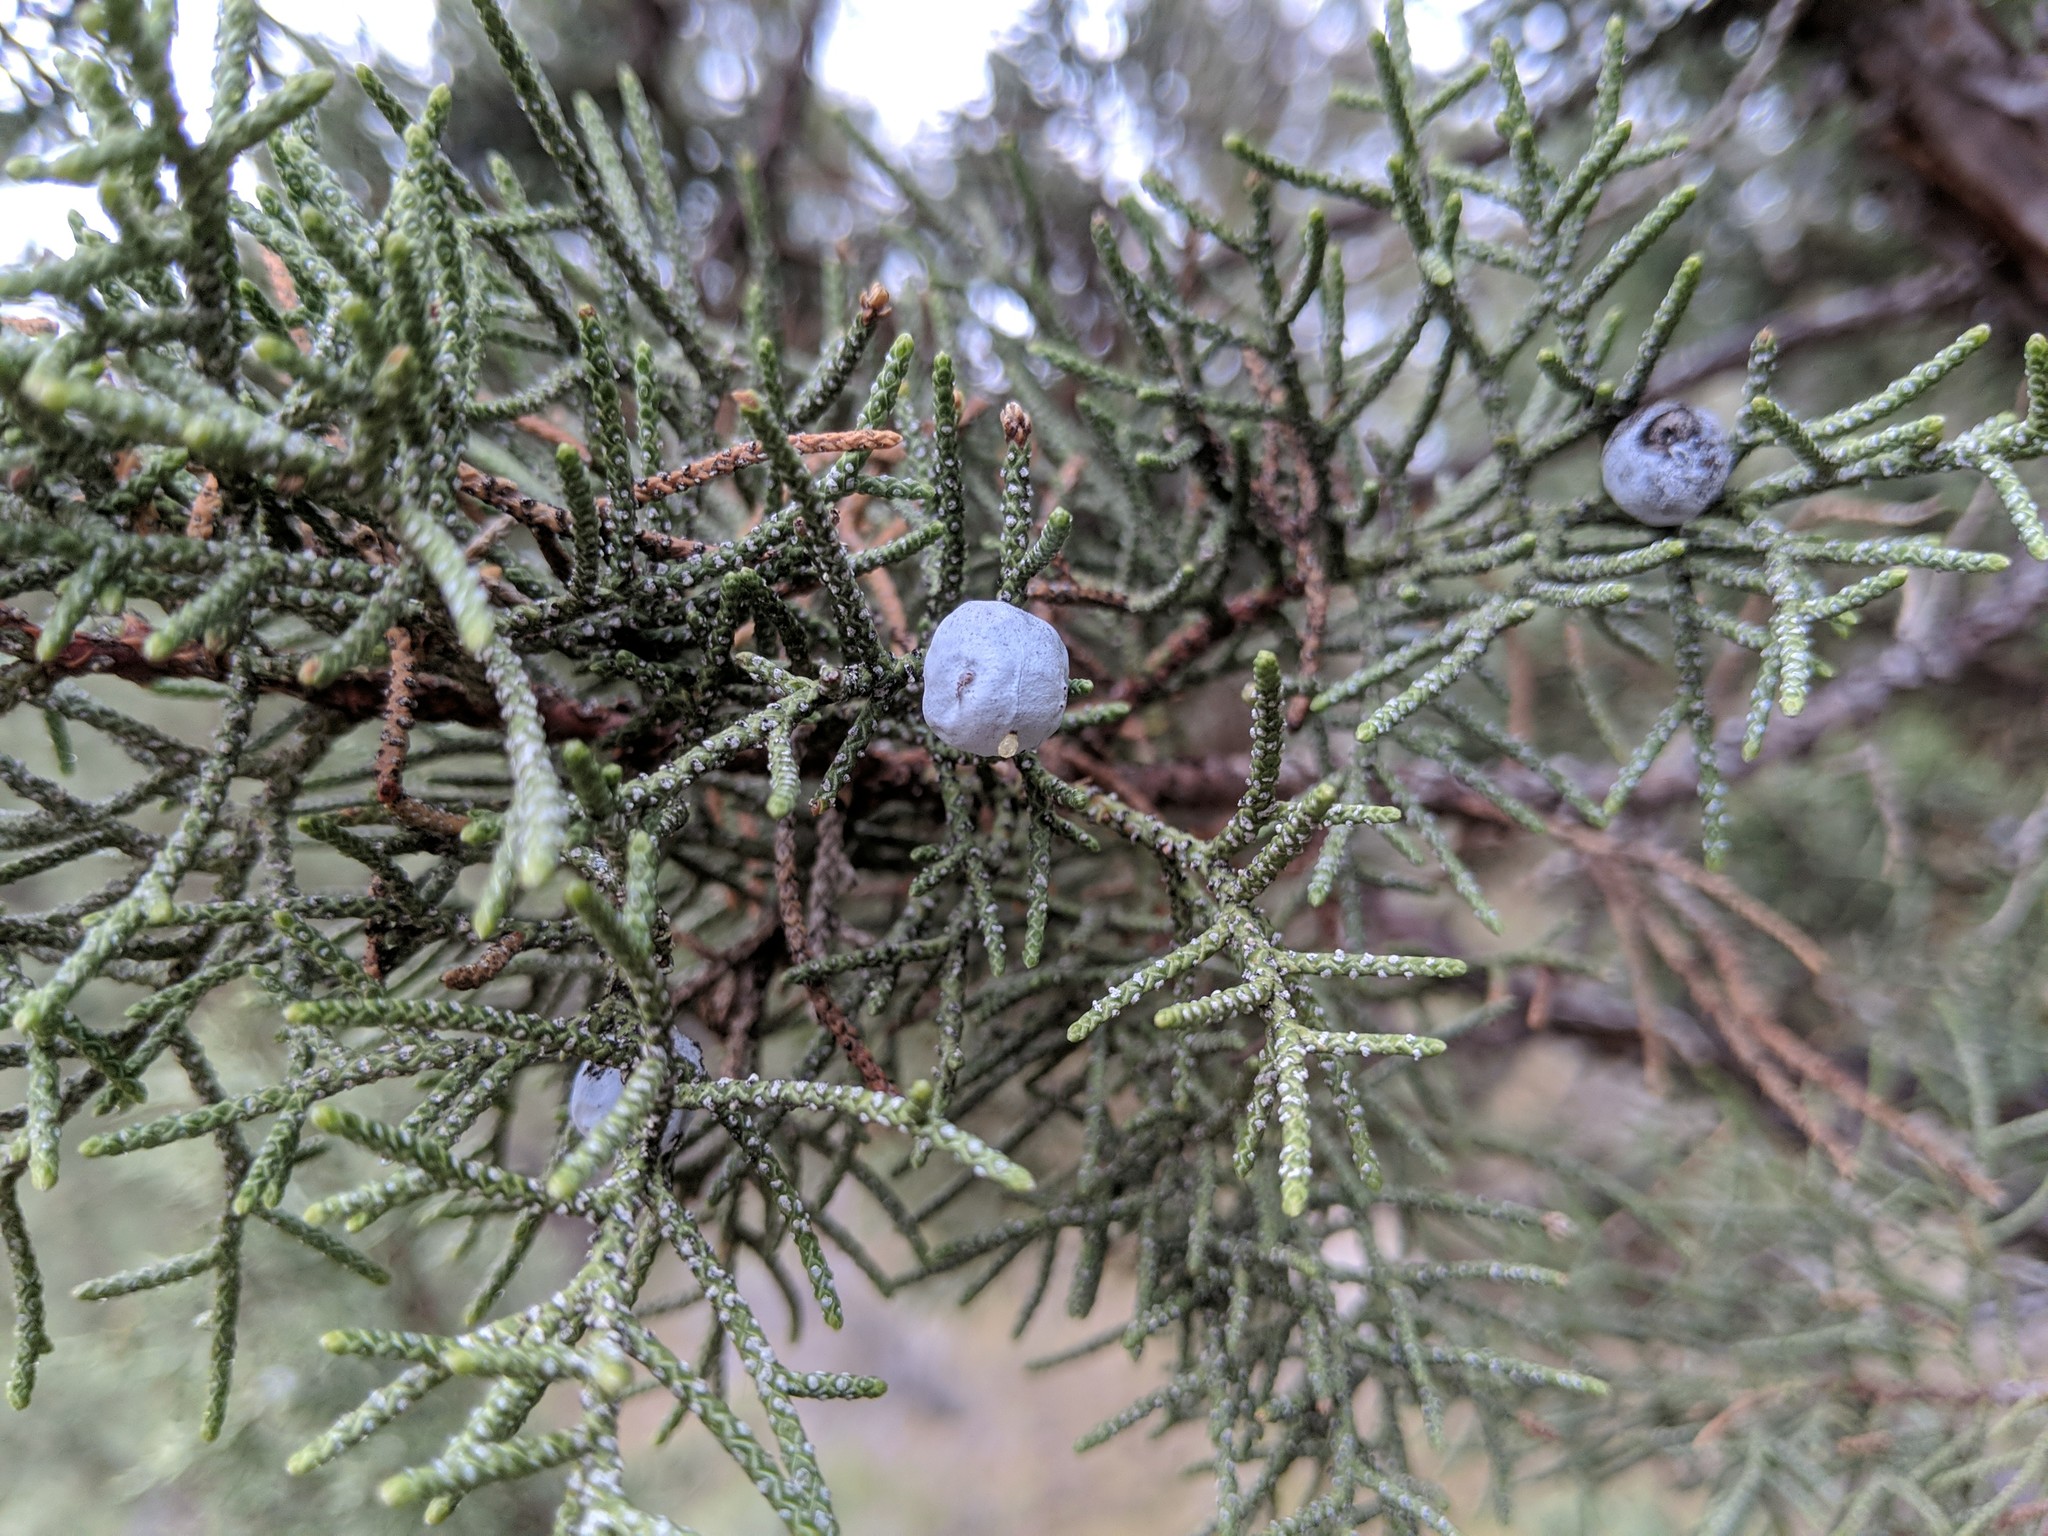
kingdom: Plantae
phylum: Tracheophyta
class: Pinopsida
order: Pinales
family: Cupressaceae
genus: Juniperus
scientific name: Juniperus occidentalis
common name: Western juniper
